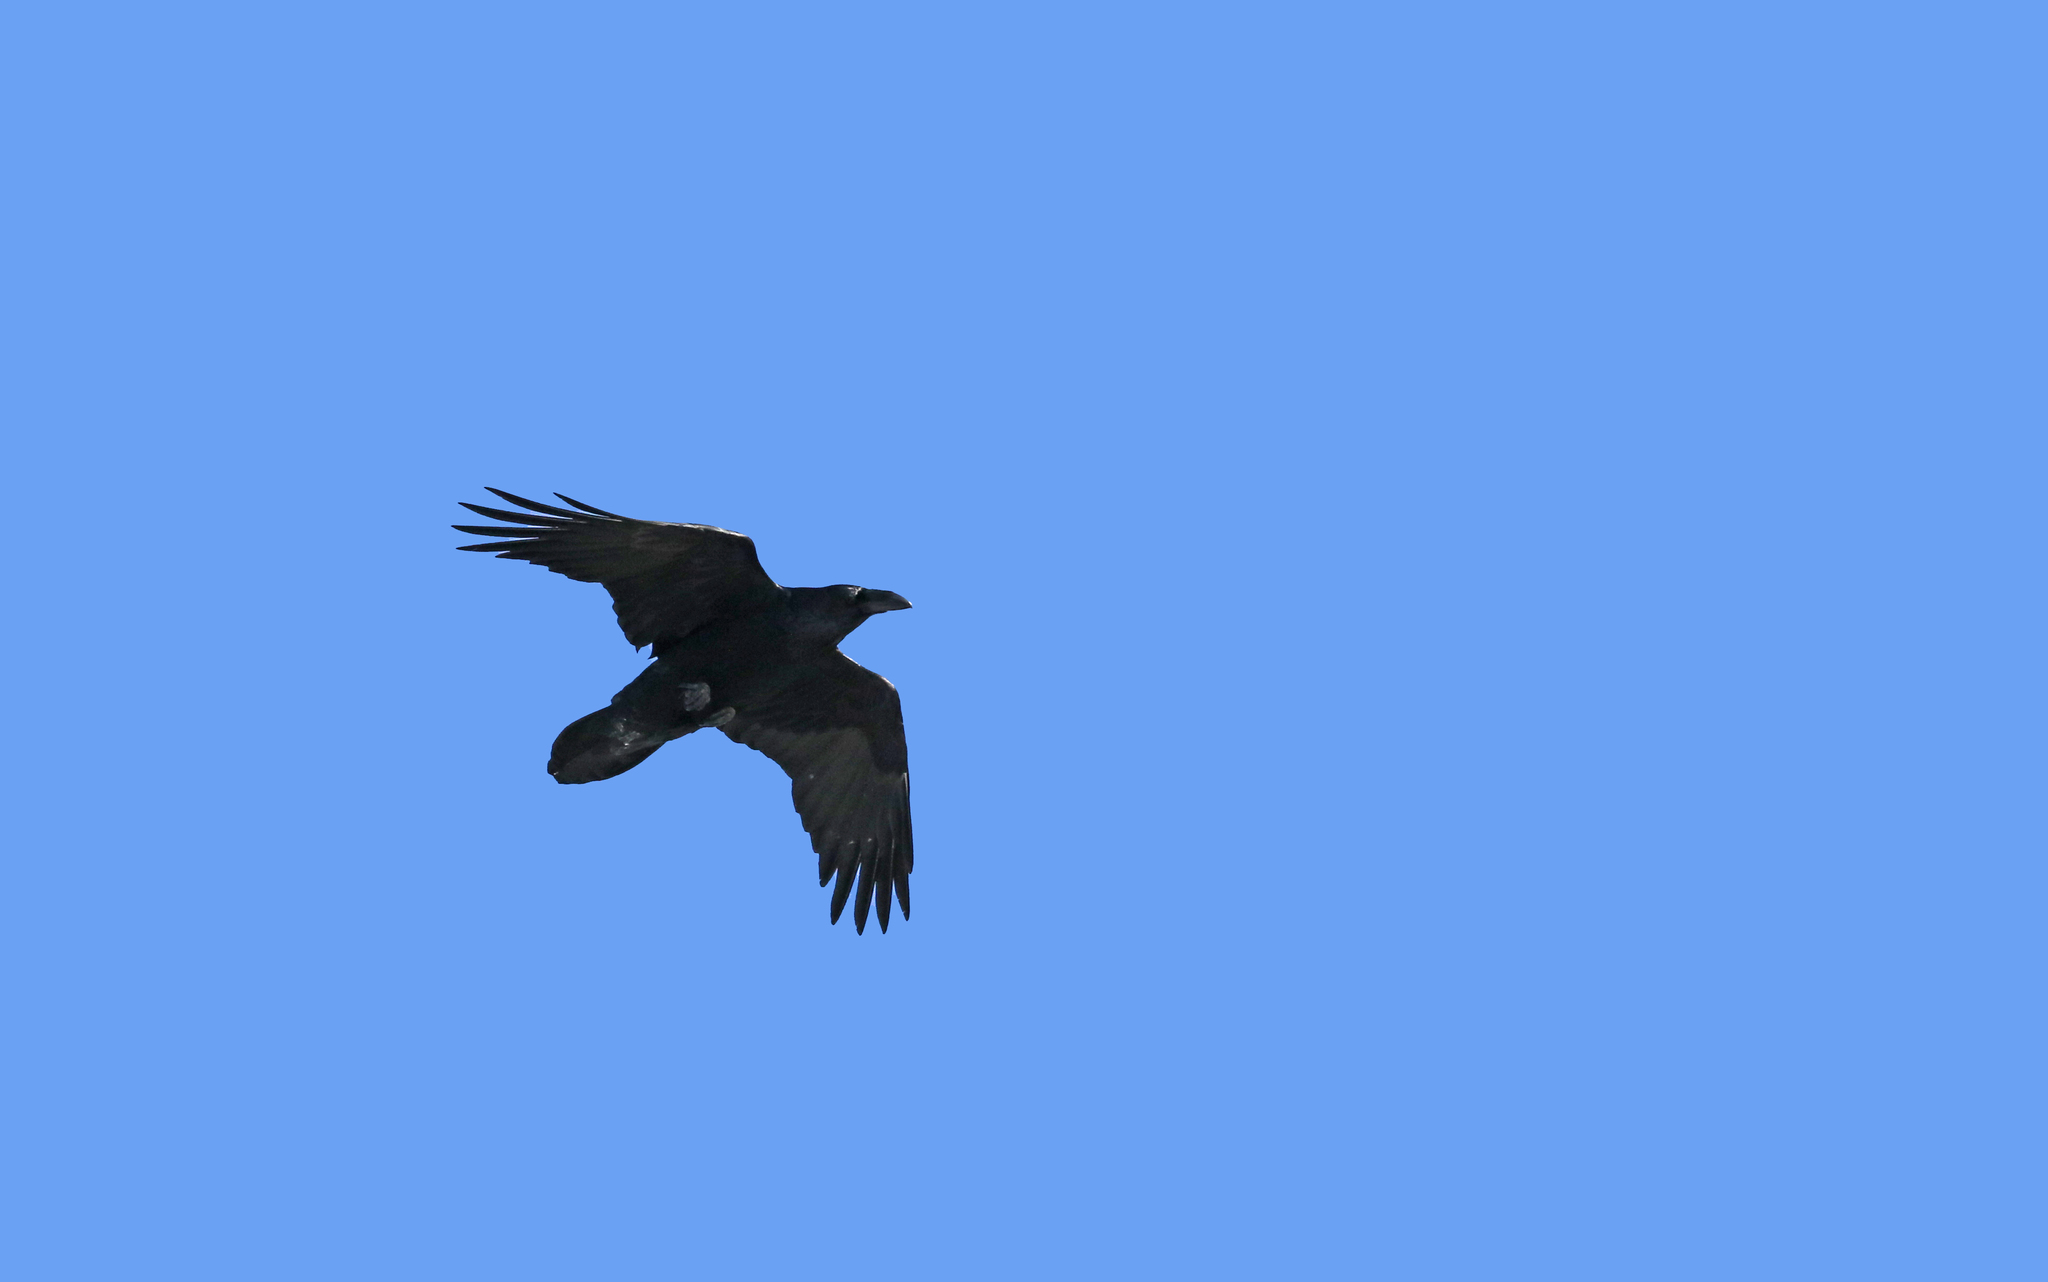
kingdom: Animalia
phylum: Chordata
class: Aves
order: Passeriformes
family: Corvidae
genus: Corvus
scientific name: Corvus corax
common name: Common raven
